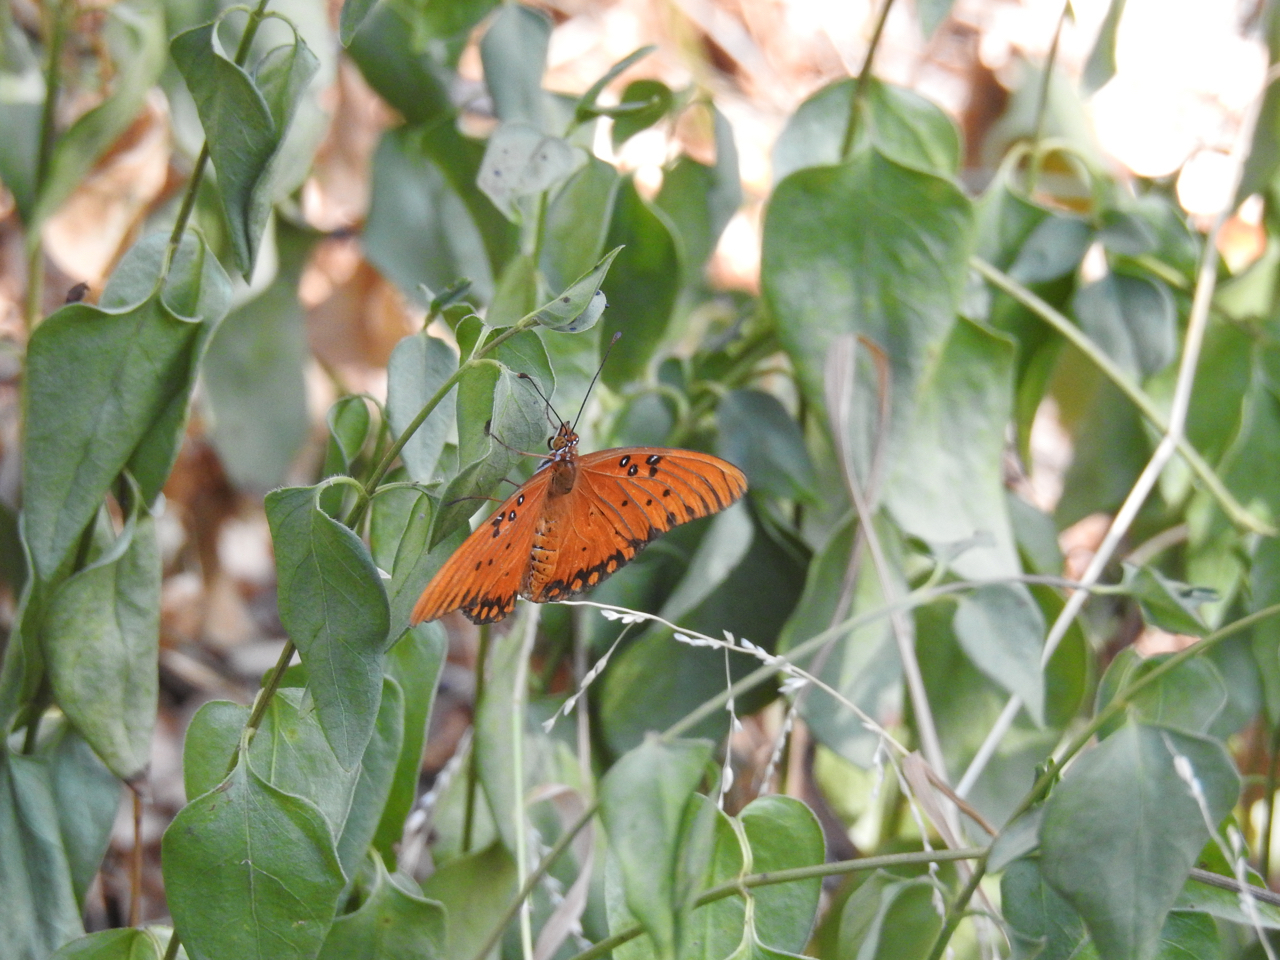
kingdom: Animalia
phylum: Arthropoda
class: Insecta
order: Lepidoptera
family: Nymphalidae
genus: Dione
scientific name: Dione vanillae
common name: Gulf fritillary
